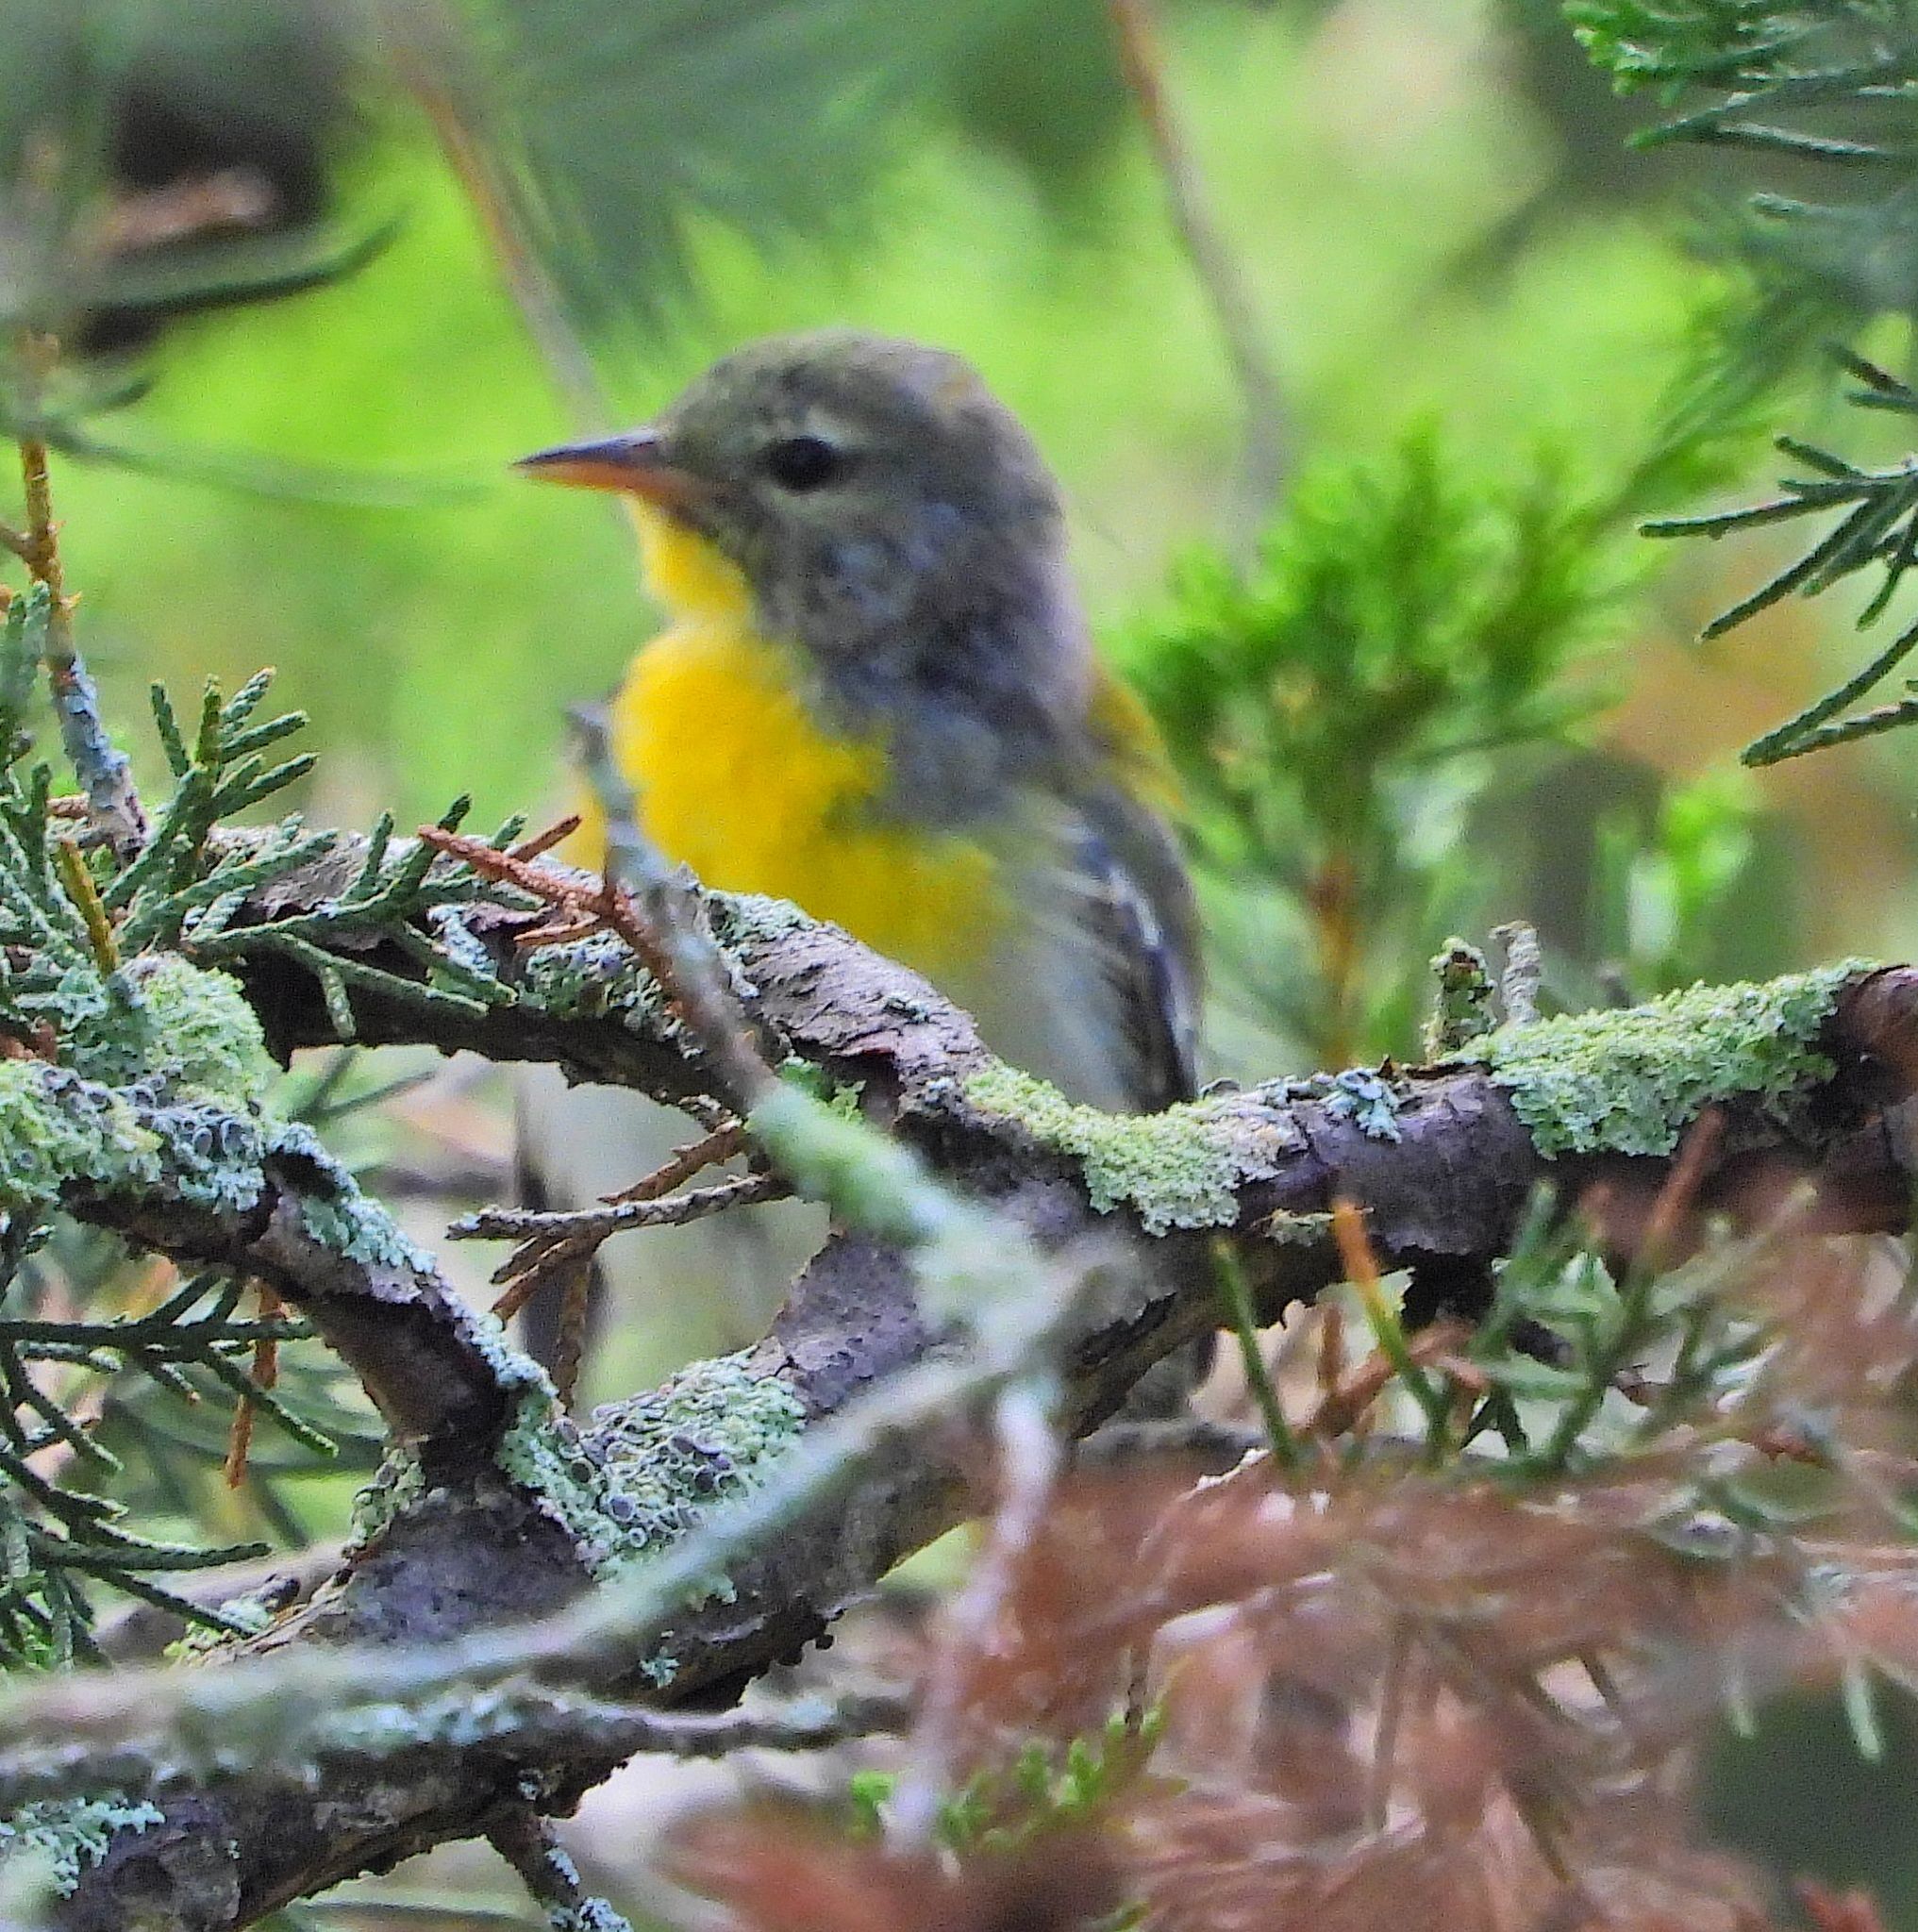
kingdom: Animalia
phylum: Chordata
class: Aves
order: Passeriformes
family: Parulidae
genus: Setophaga
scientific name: Setophaga americana
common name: Northern parula
